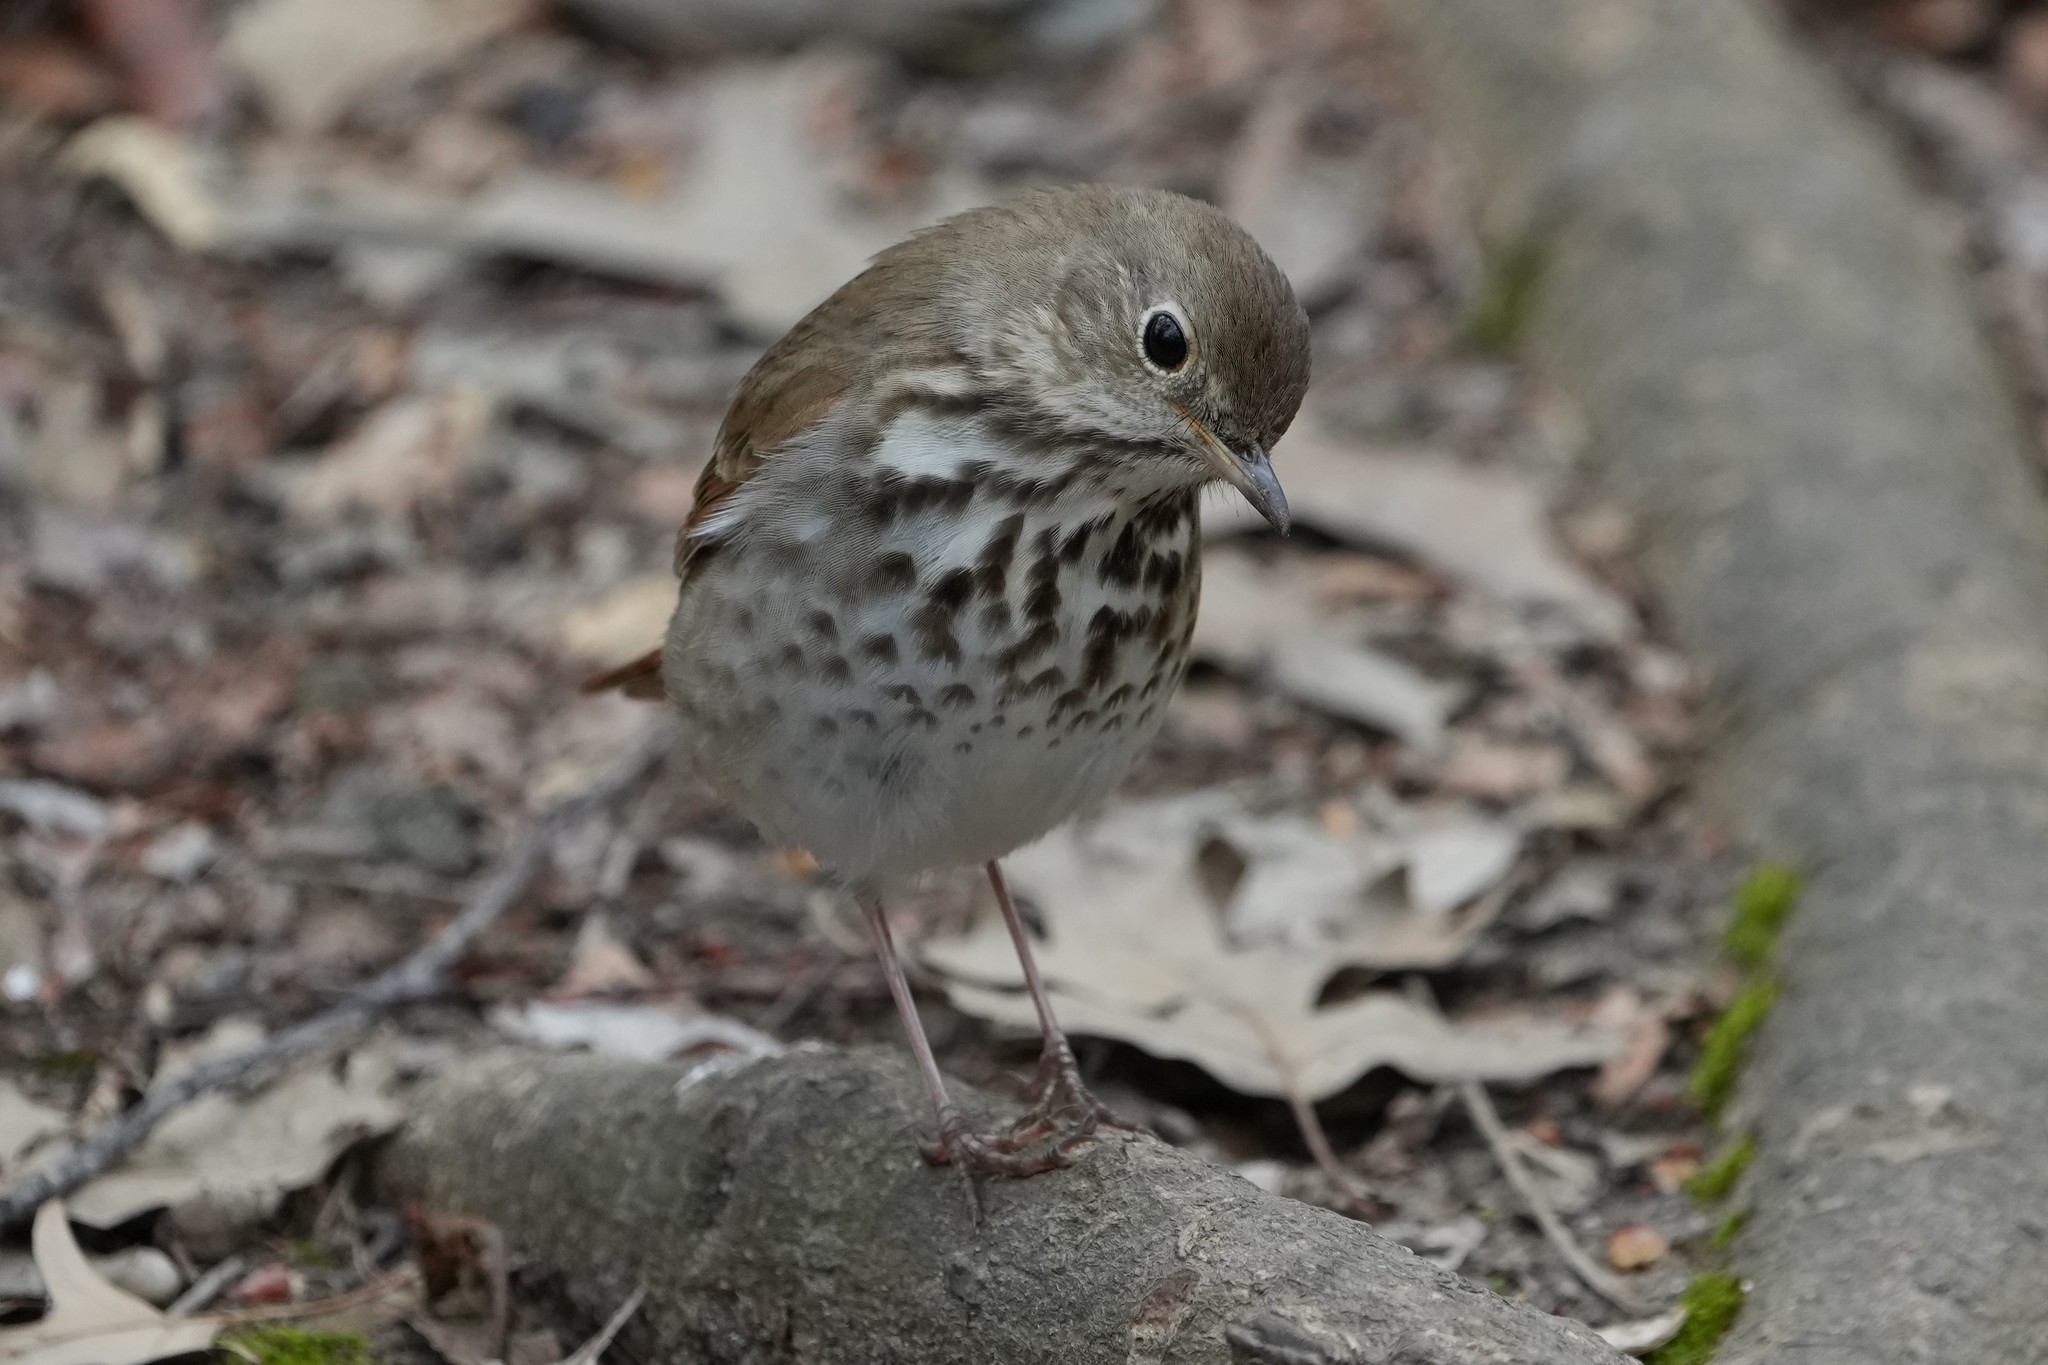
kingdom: Animalia
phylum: Chordata
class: Aves
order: Passeriformes
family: Turdidae
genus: Catharus
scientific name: Catharus guttatus
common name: Hermit thrush
